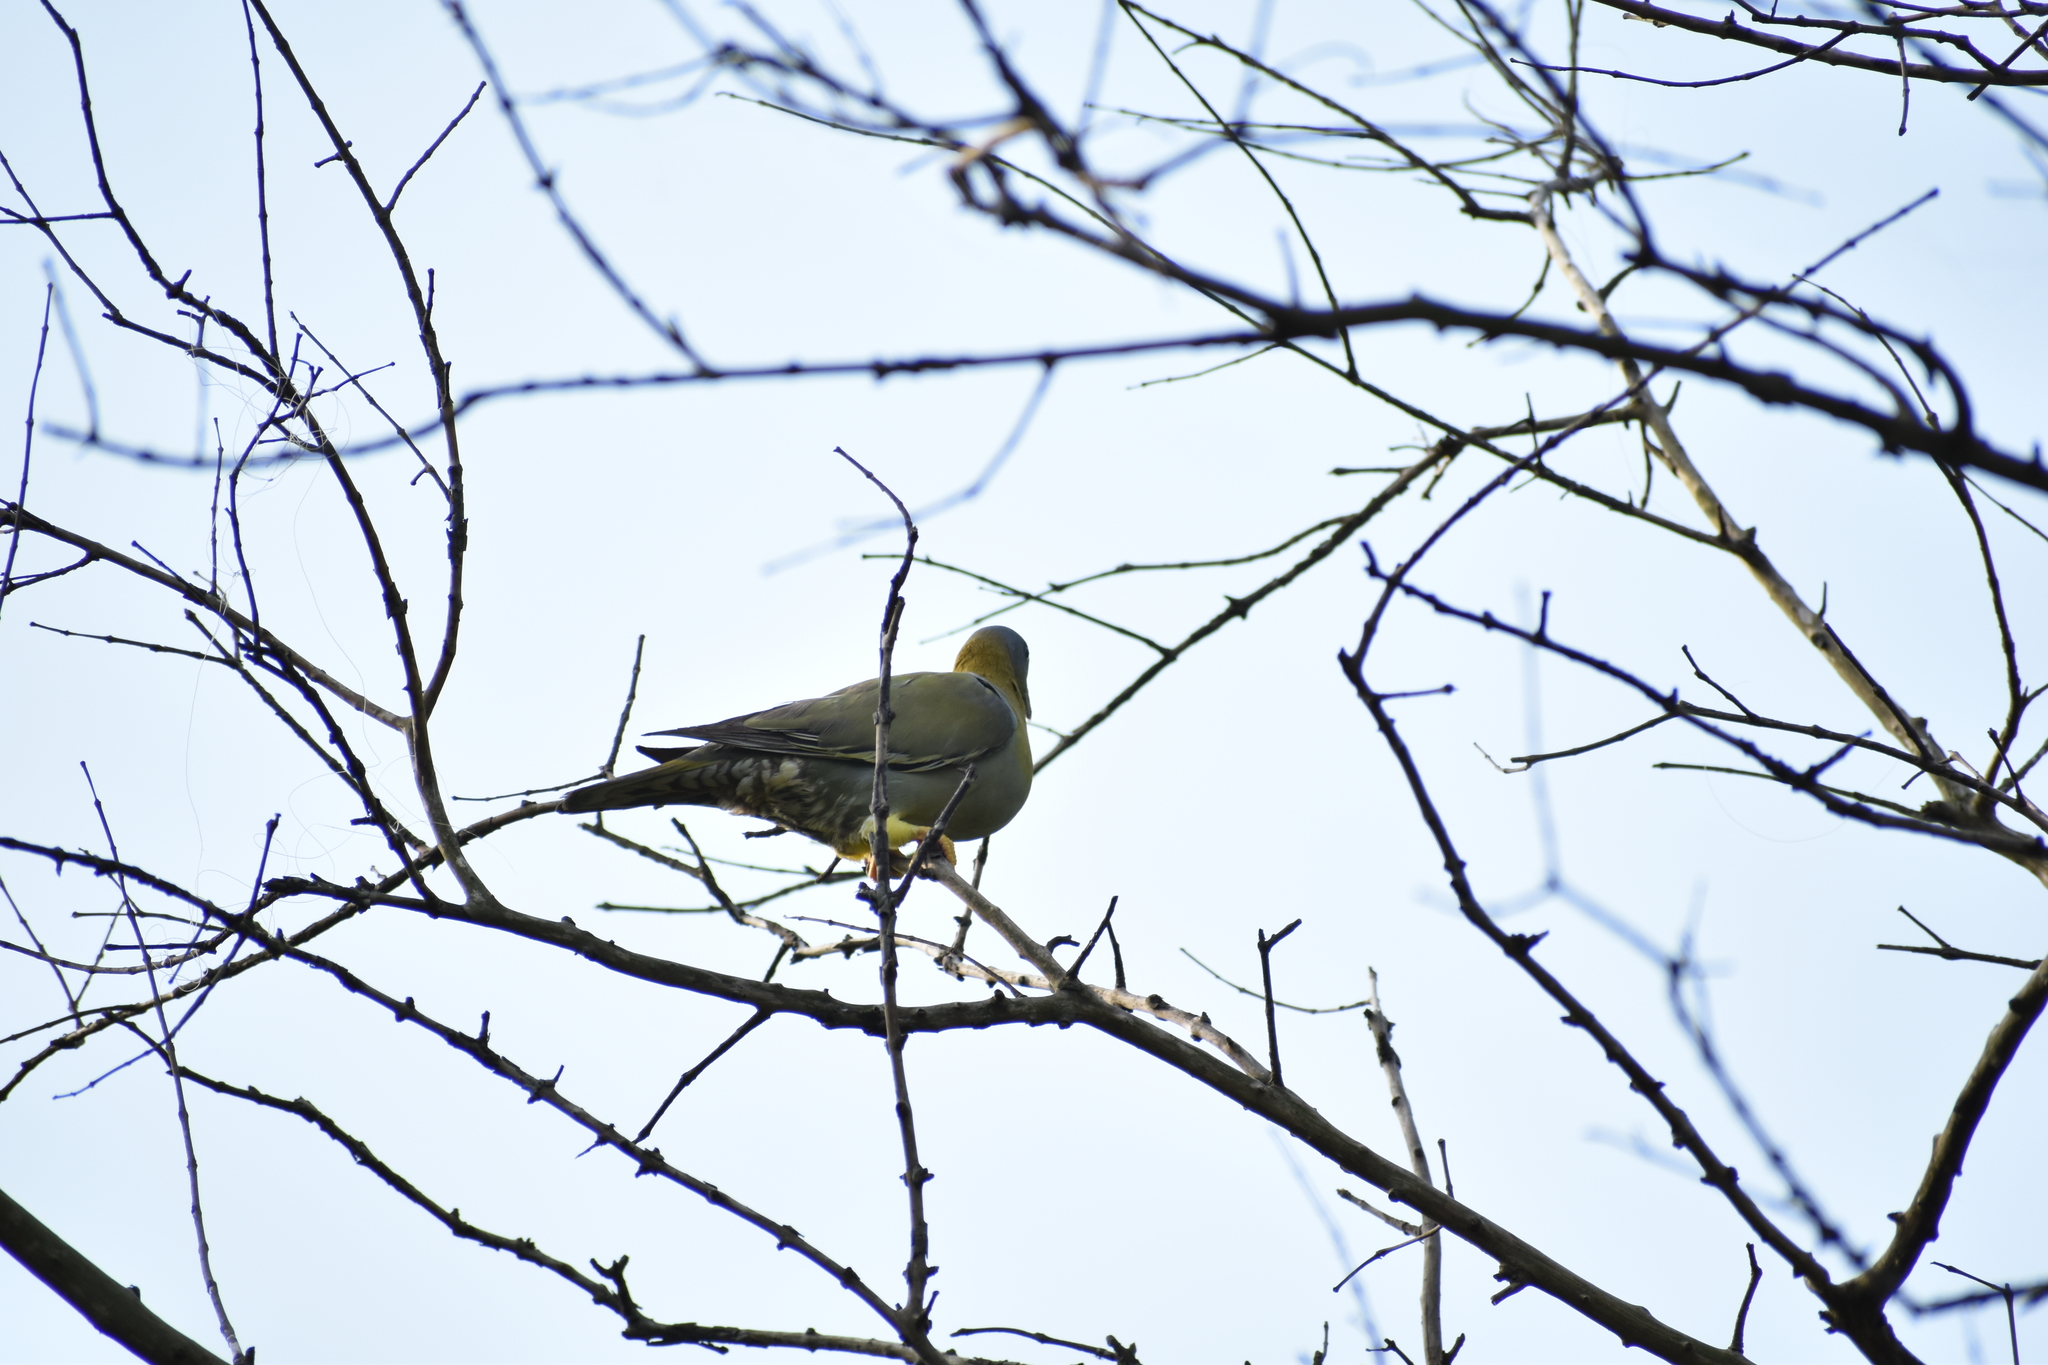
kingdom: Animalia
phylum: Chordata
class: Aves
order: Columbiformes
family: Columbidae
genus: Treron
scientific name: Treron phoenicopterus
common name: Yellow-footed green pigeon
